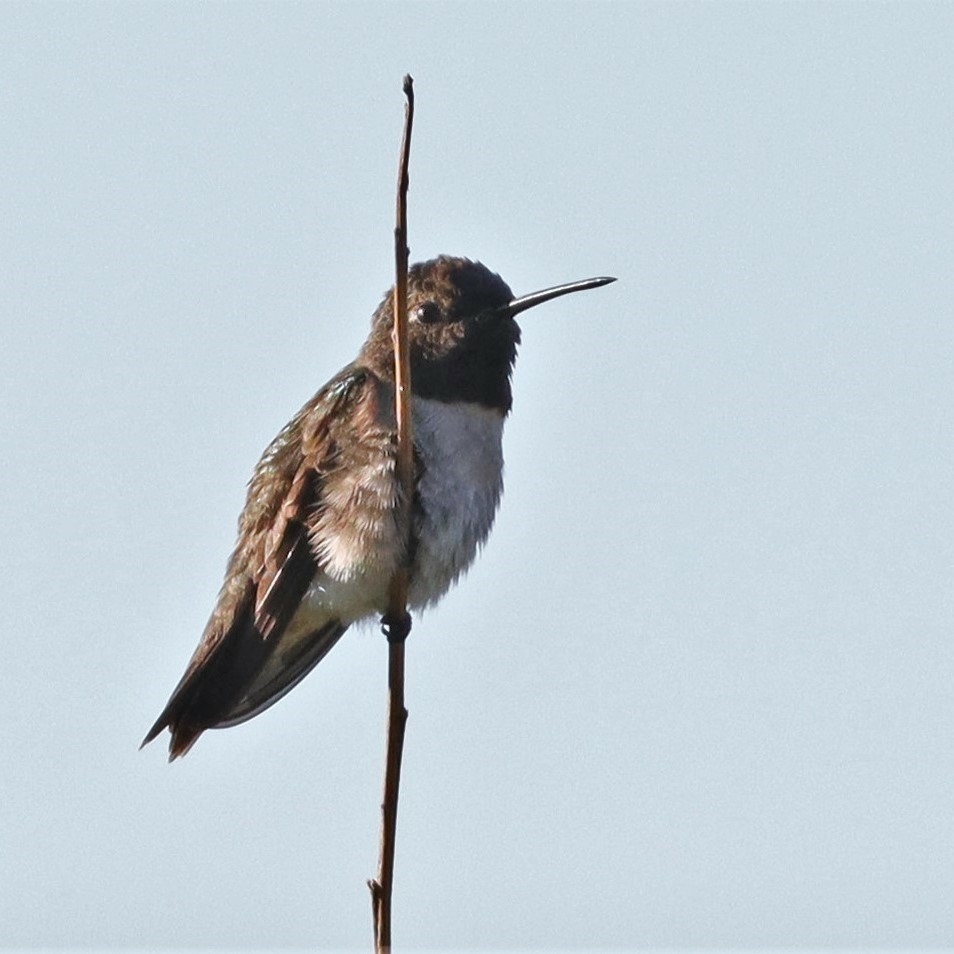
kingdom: Animalia
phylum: Chordata
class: Aves
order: Apodiformes
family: Trochilidae
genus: Archilochus
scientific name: Archilochus alexandri
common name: Black-chinned hummingbird
